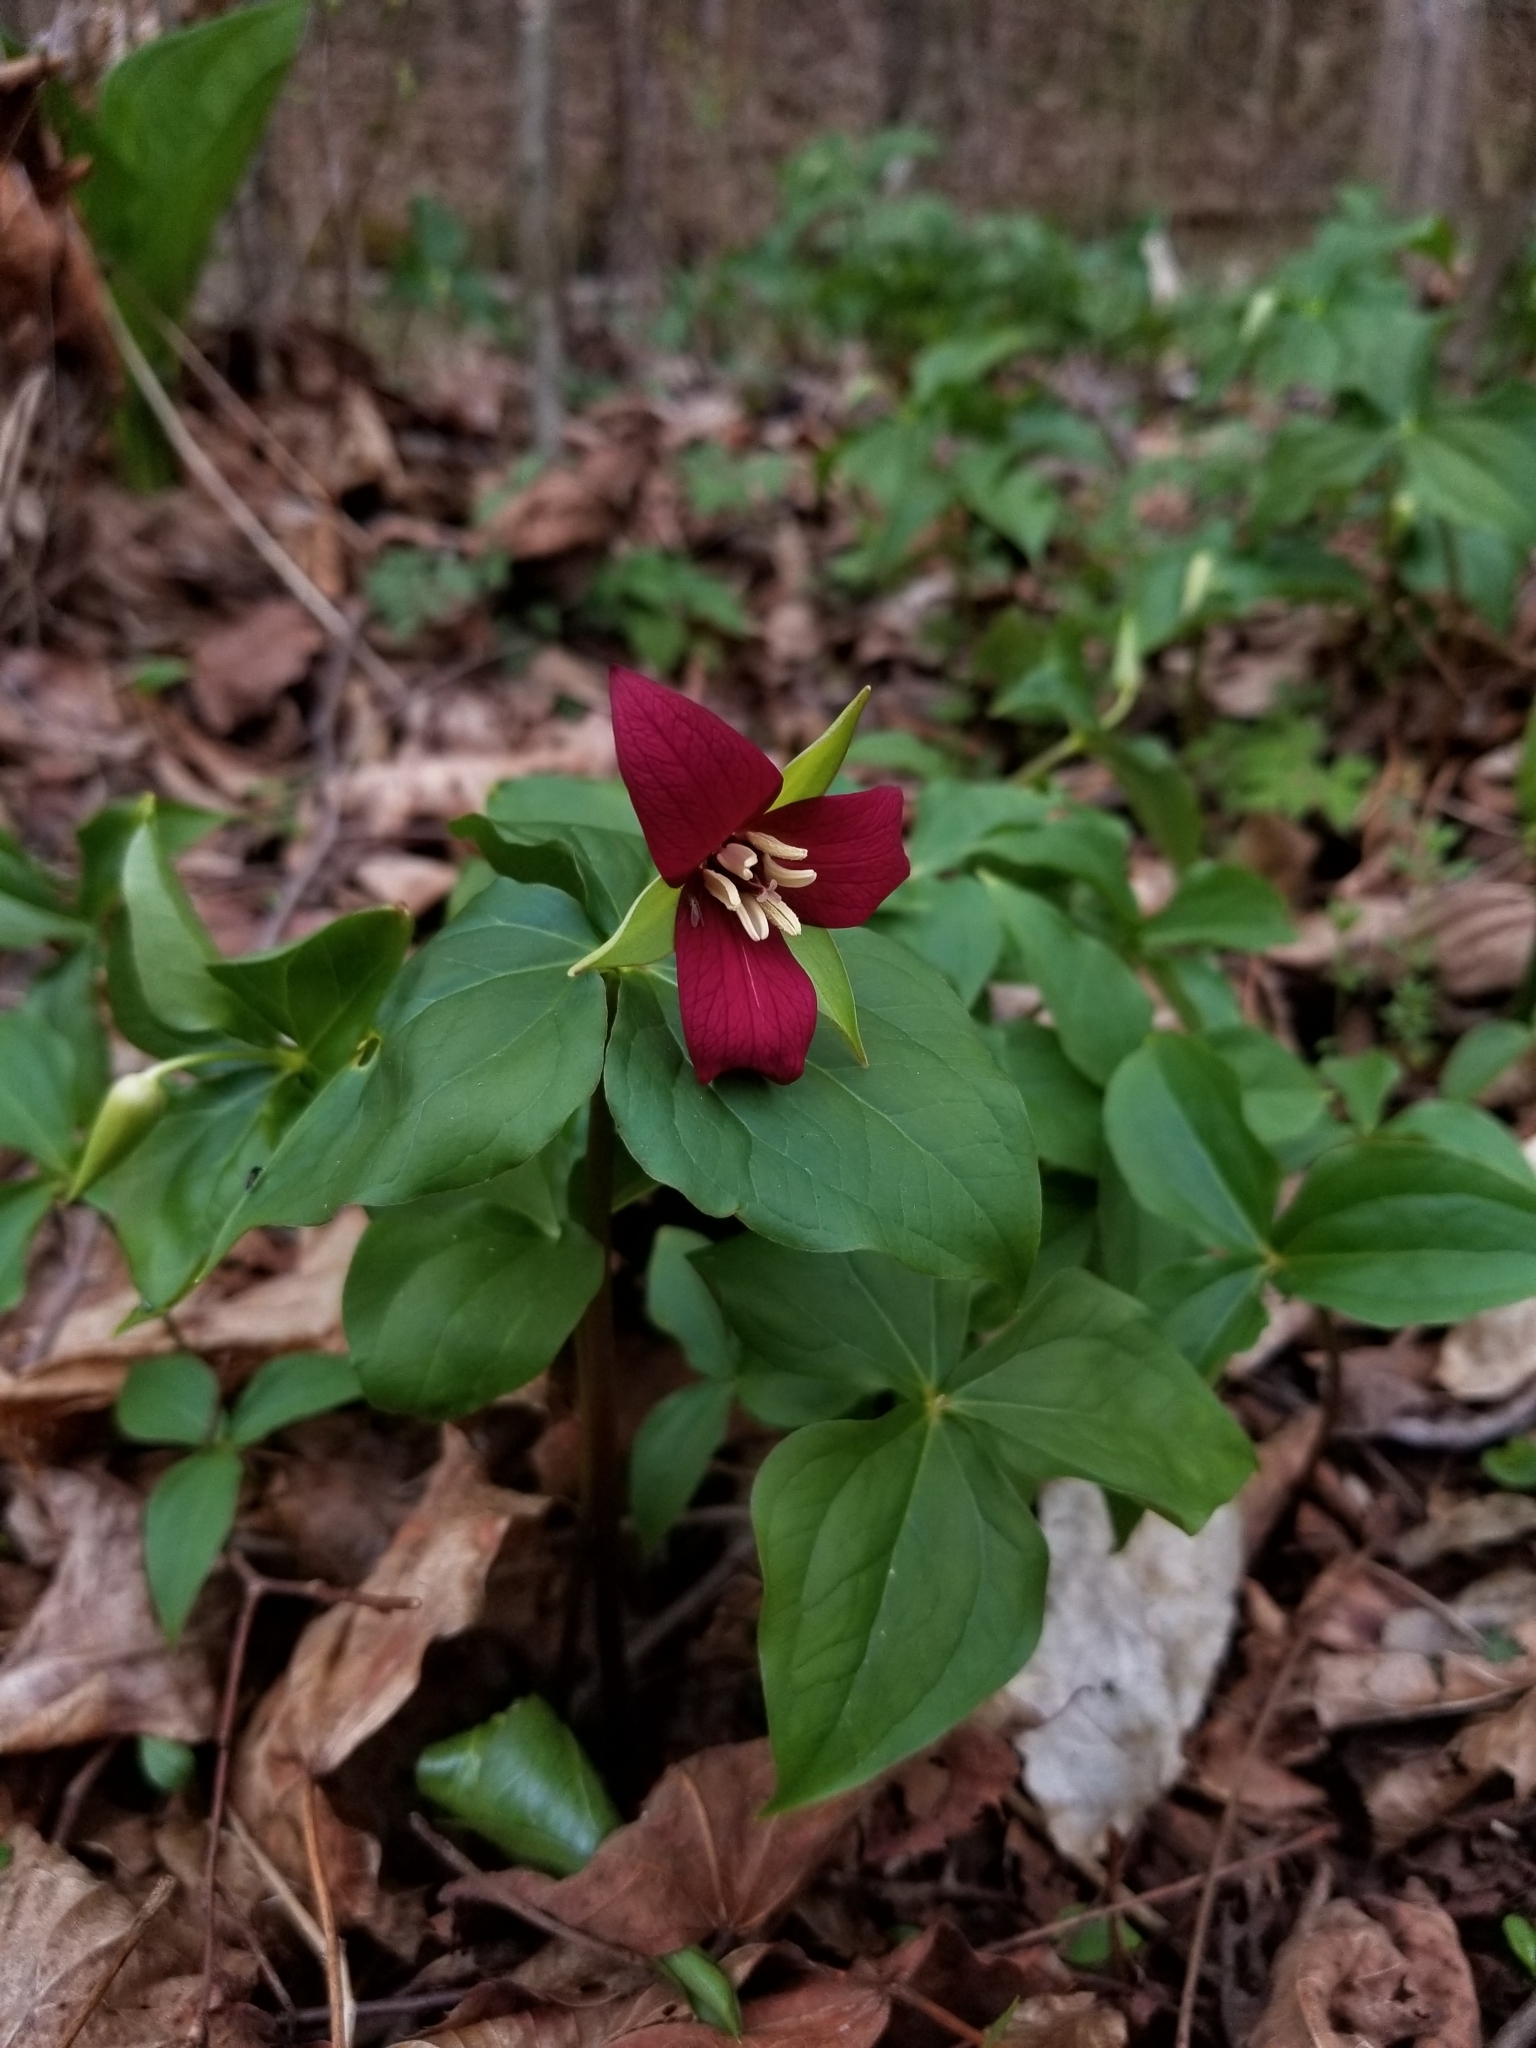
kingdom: Plantae
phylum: Tracheophyta
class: Liliopsida
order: Liliales
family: Melanthiaceae
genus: Trillium
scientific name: Trillium erectum
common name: Purple trillium
